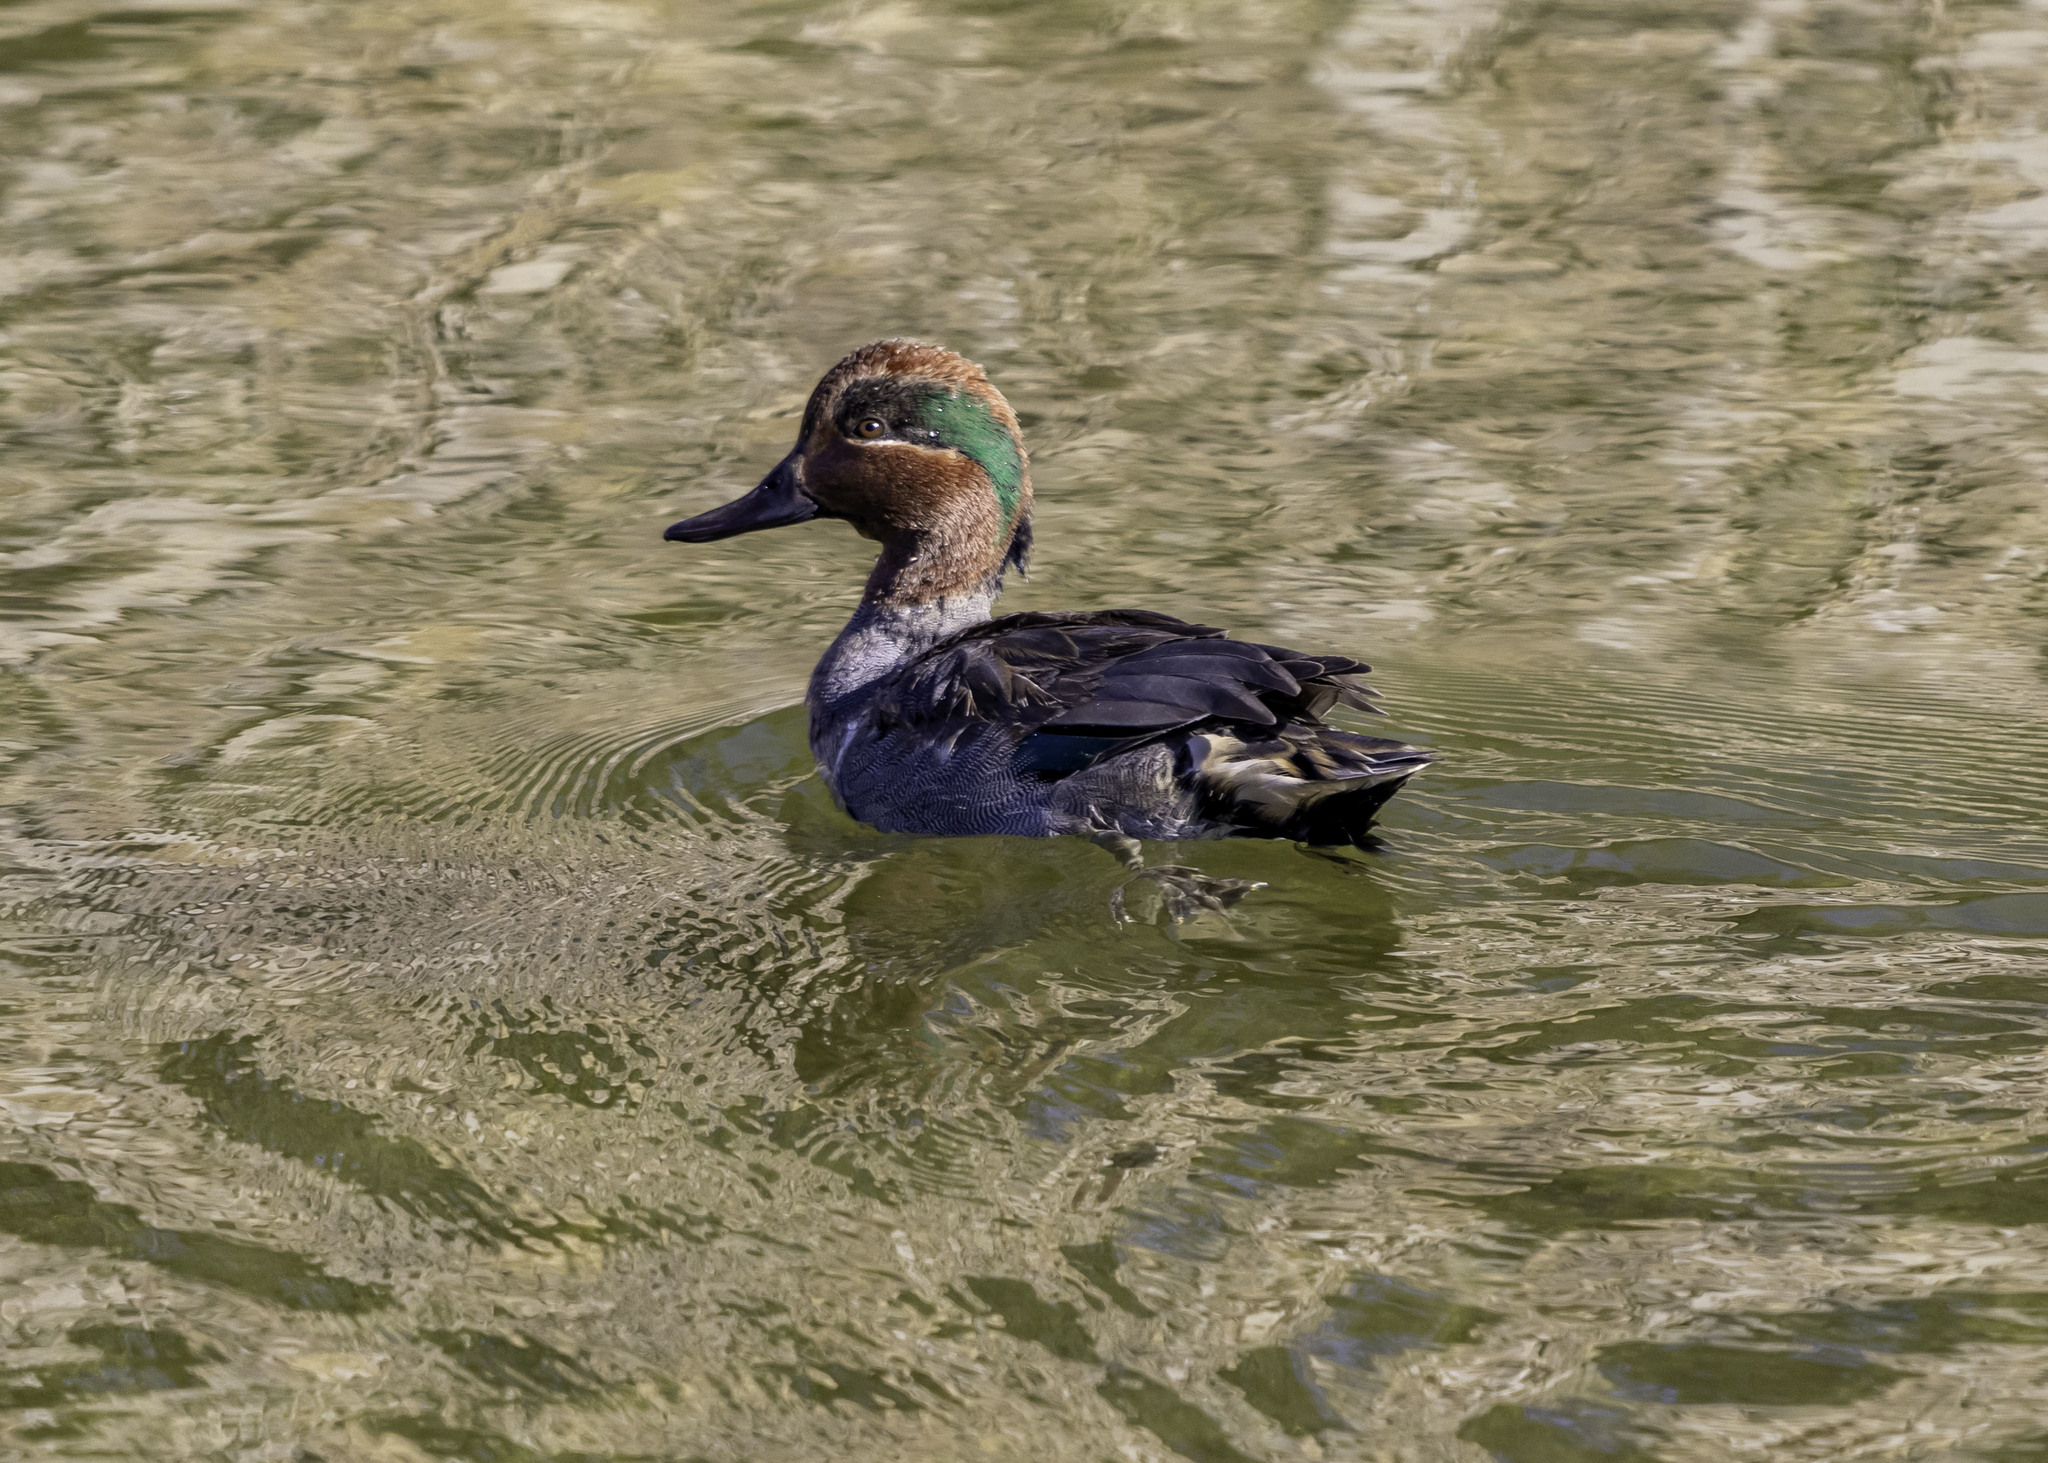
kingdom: Animalia
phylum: Chordata
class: Aves
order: Anseriformes
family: Anatidae
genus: Anas
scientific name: Anas crecca
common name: Eurasian teal
